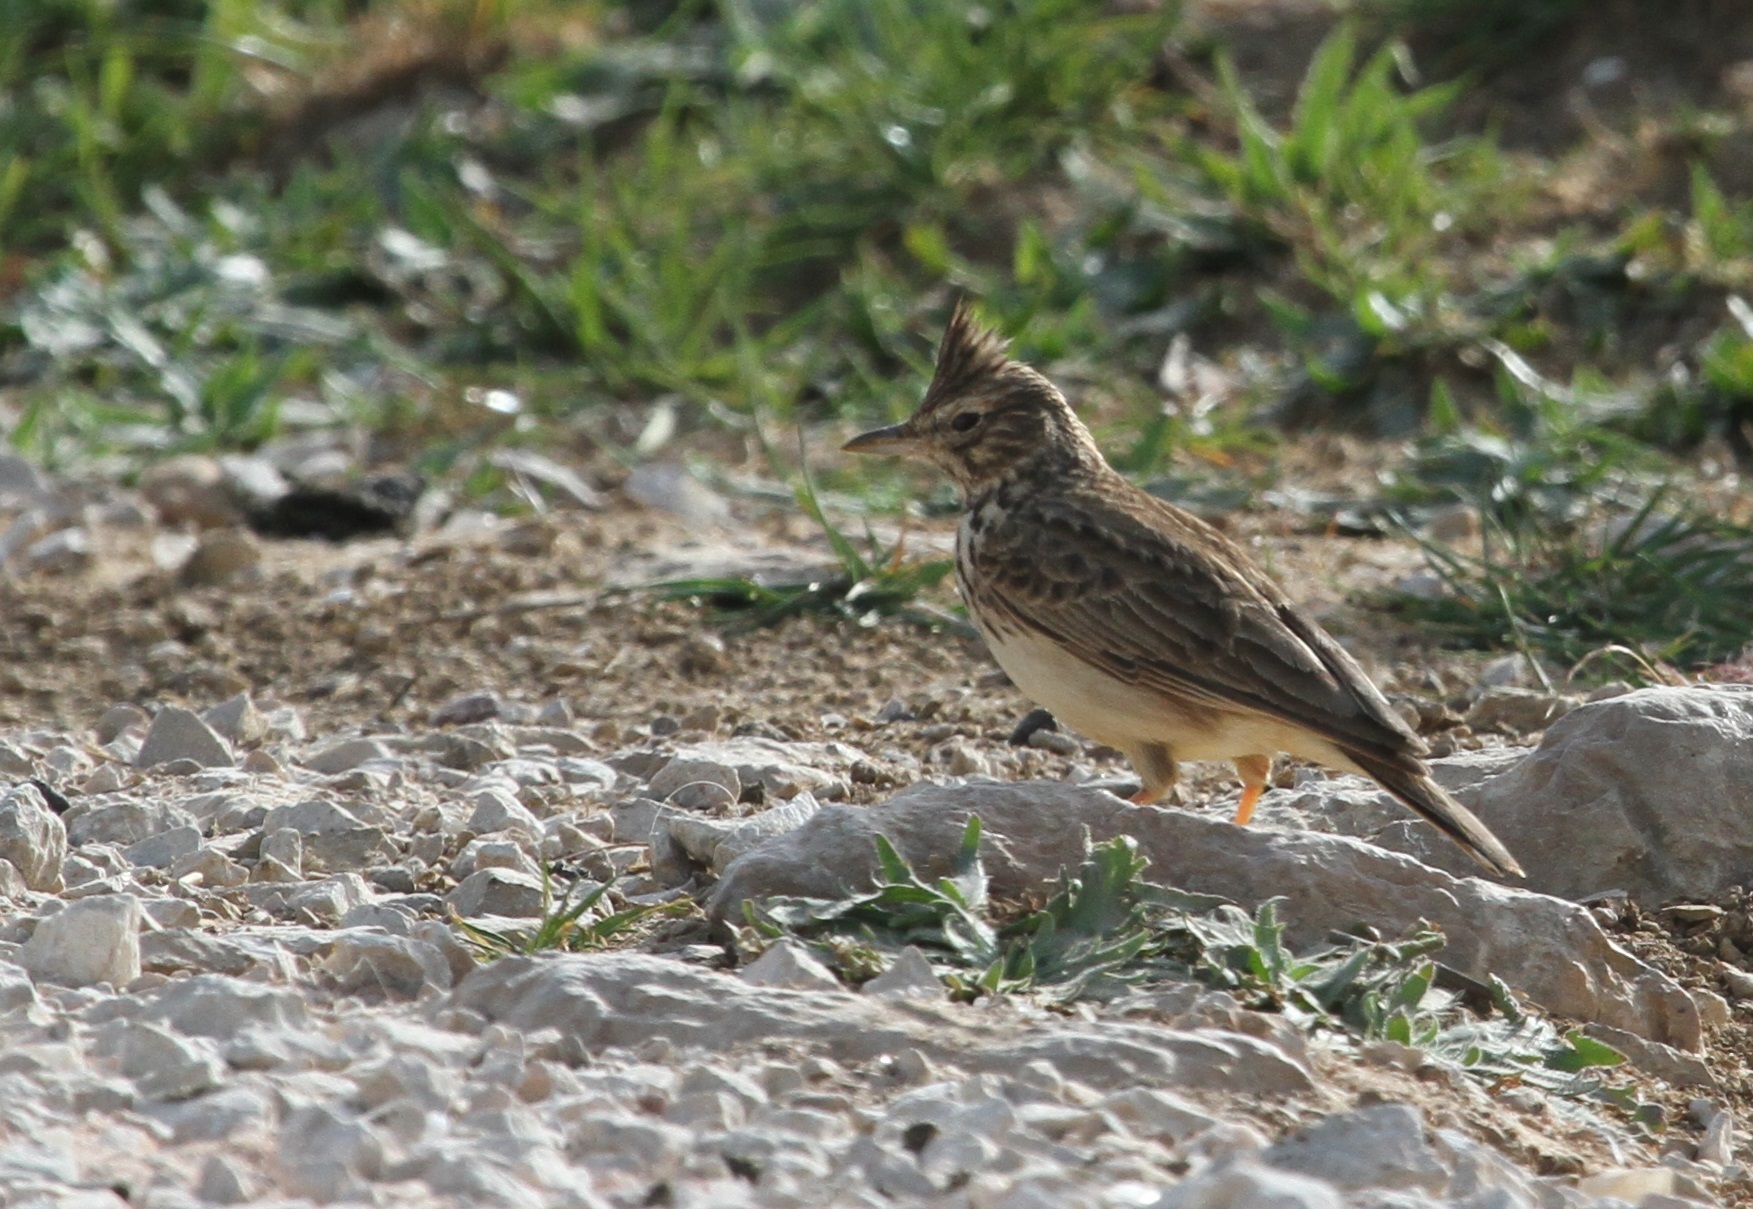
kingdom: Animalia
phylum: Chordata
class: Aves
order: Passeriformes
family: Alaudidae
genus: Galerida
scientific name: Galerida theklae
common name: Thekla lark
